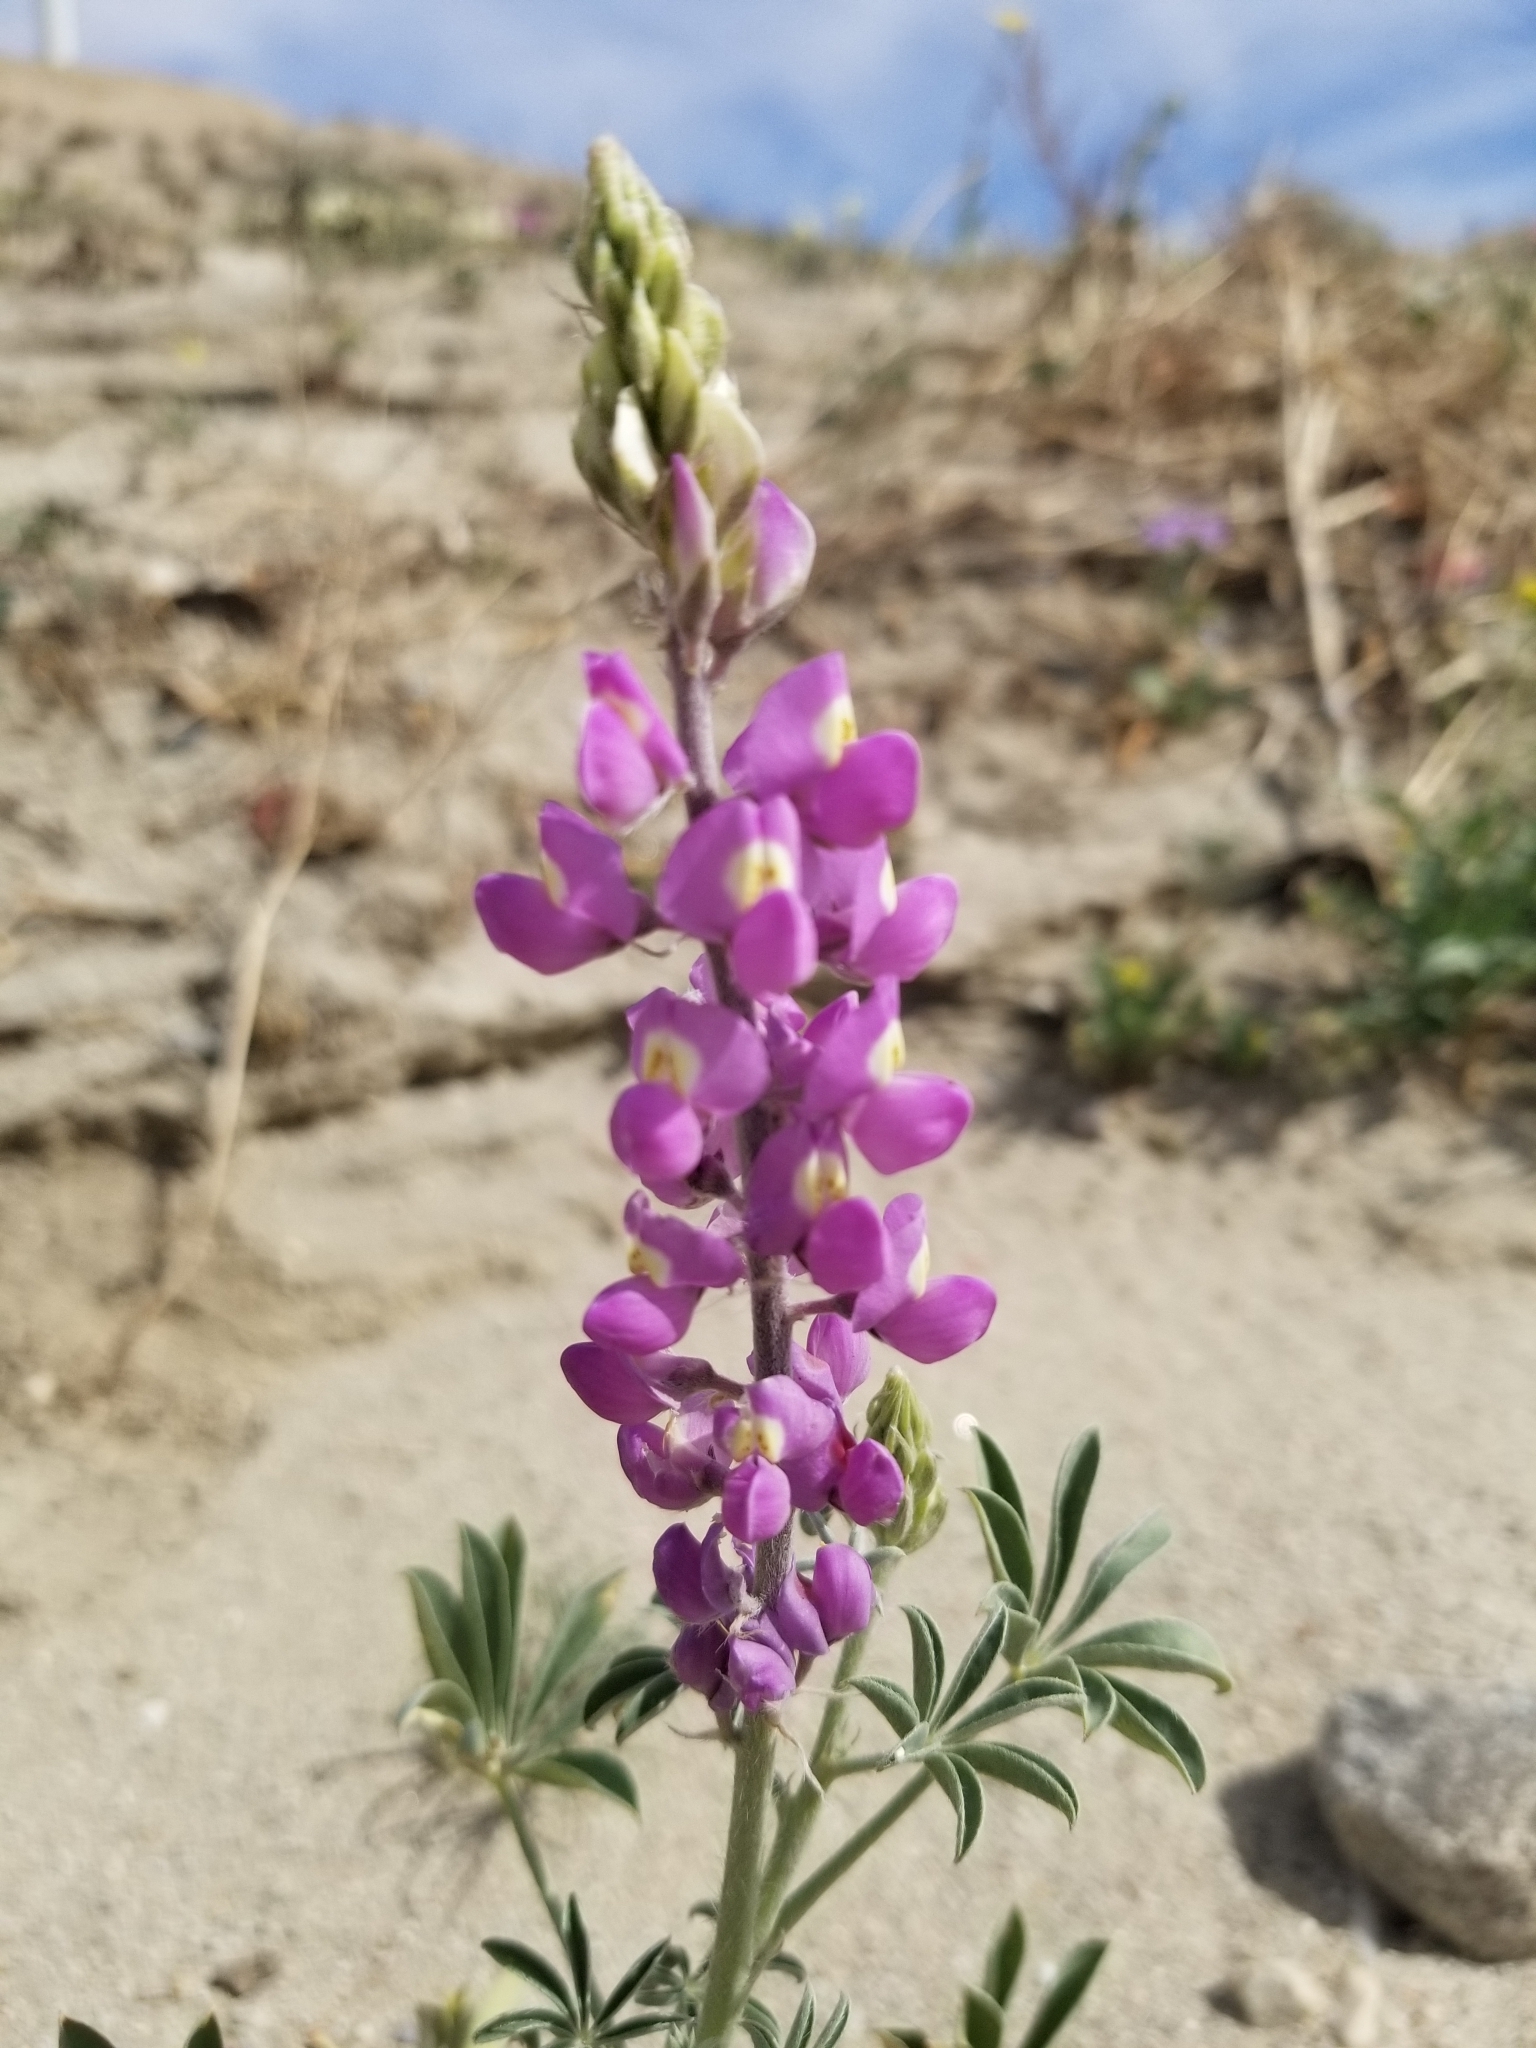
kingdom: Plantae
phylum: Tracheophyta
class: Magnoliopsida
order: Fabales
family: Fabaceae
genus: Lupinus
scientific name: Lupinus arizonicus
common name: Arizona lupine
